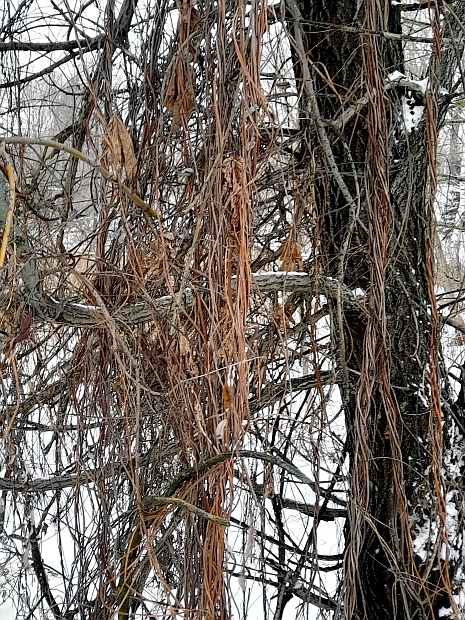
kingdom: Plantae
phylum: Tracheophyta
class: Magnoliopsida
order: Rosales
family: Cannabaceae
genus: Humulus
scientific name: Humulus lupulus
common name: Hop
